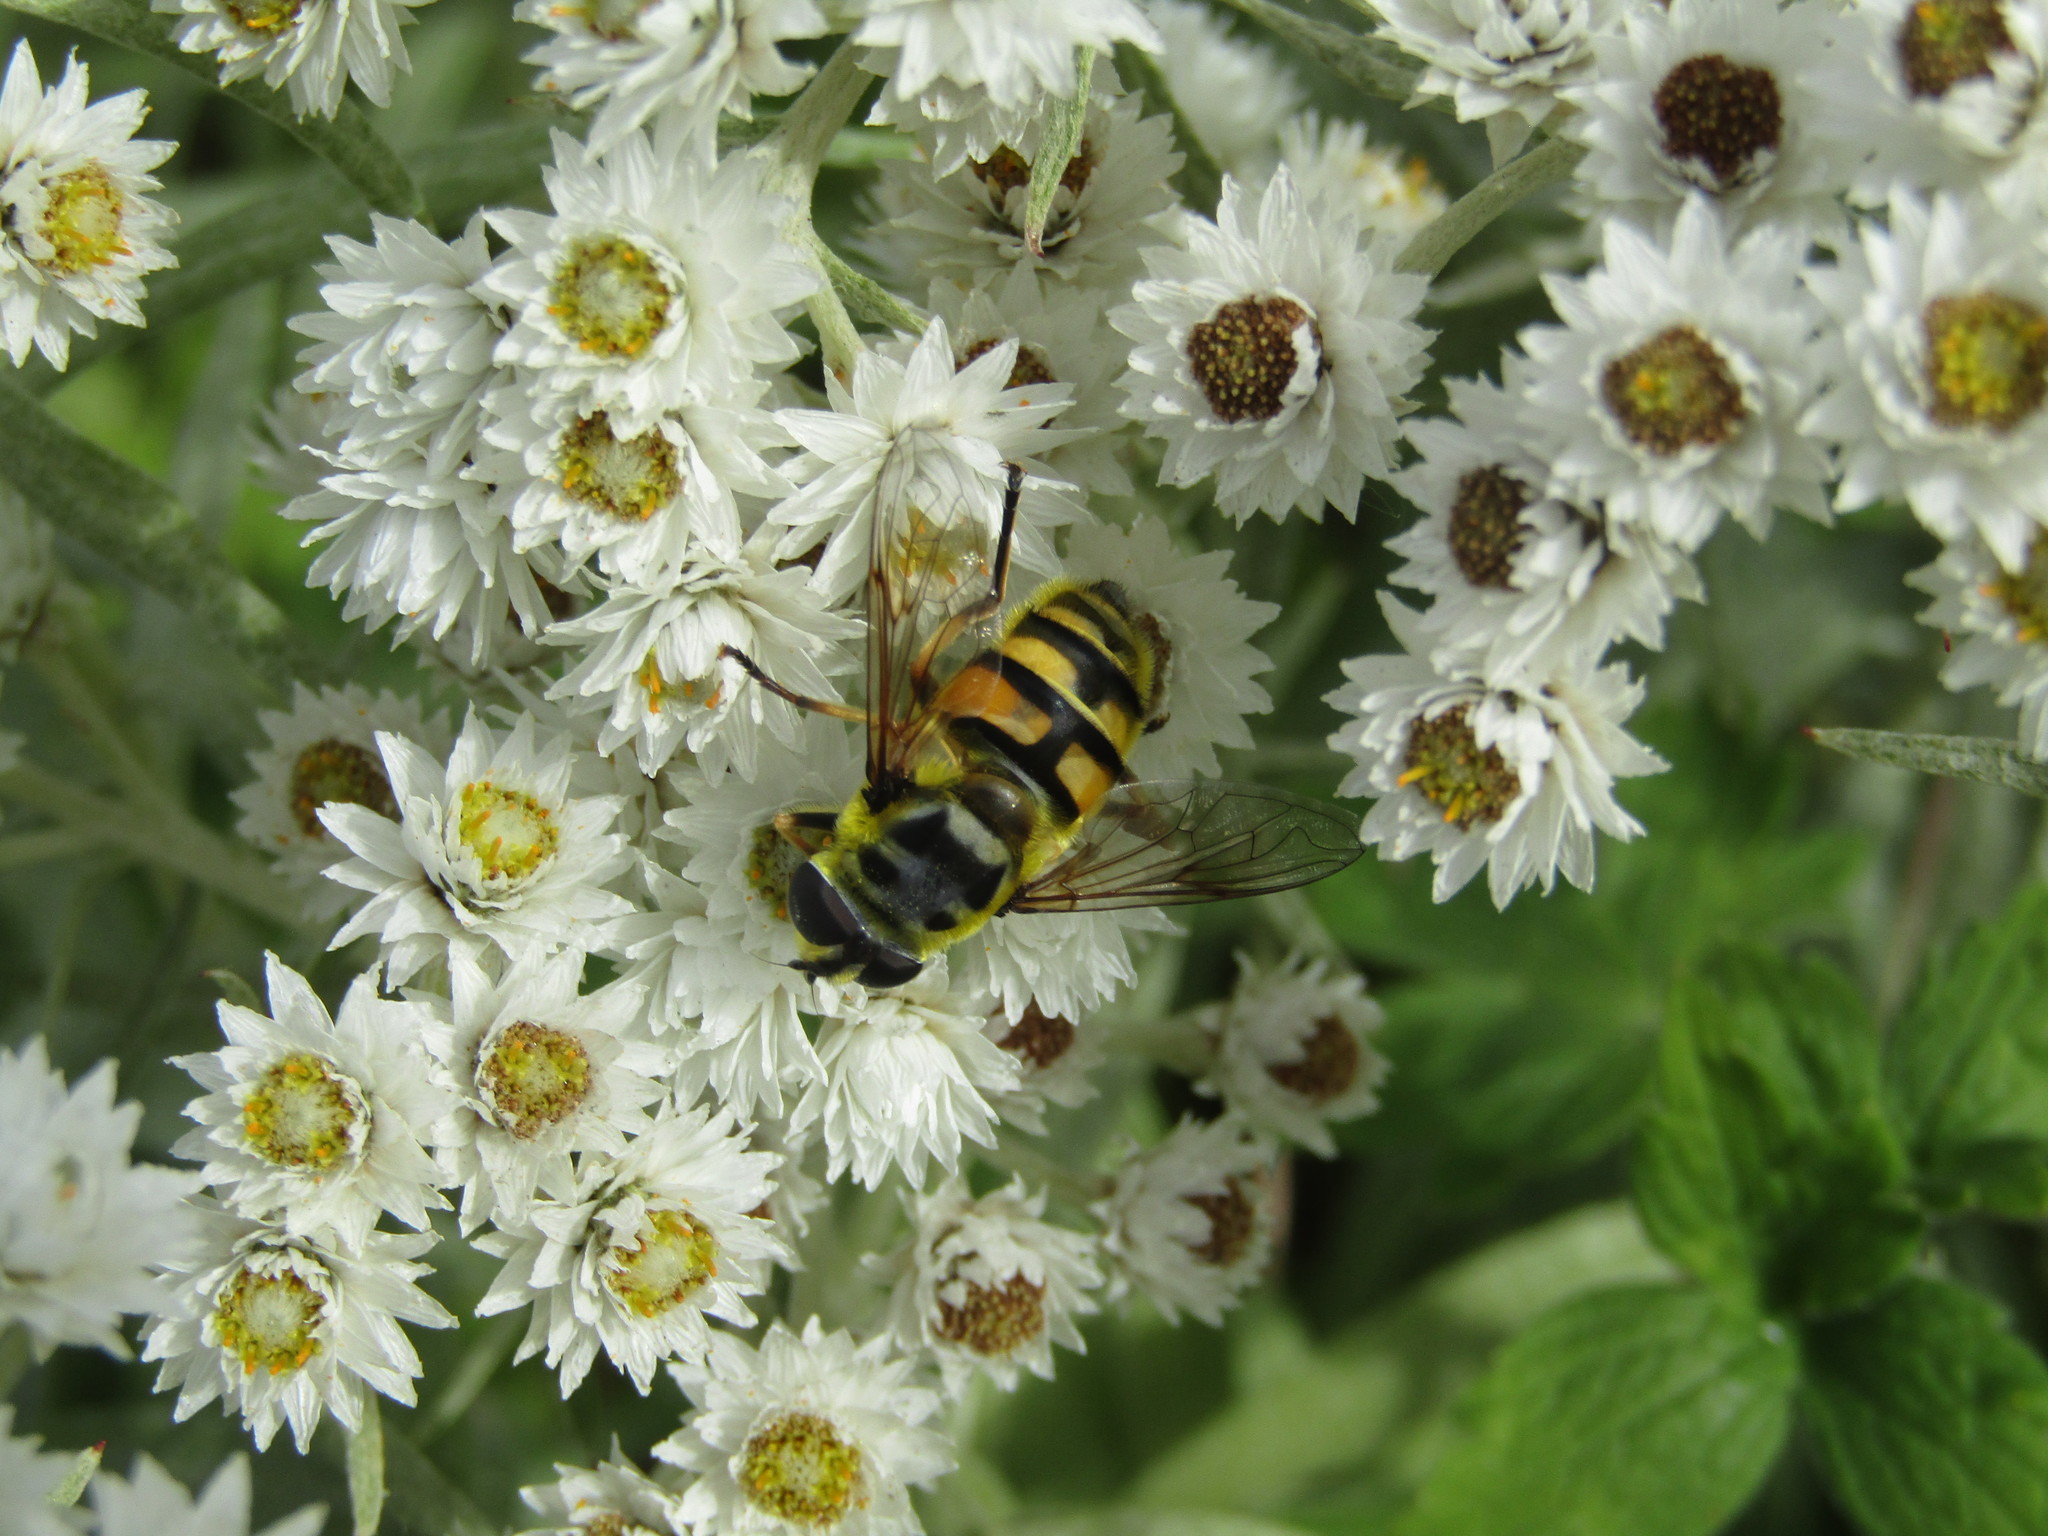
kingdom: Animalia
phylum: Arthropoda
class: Insecta
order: Diptera
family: Syrphidae
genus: Myathropa
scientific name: Myathropa florea
